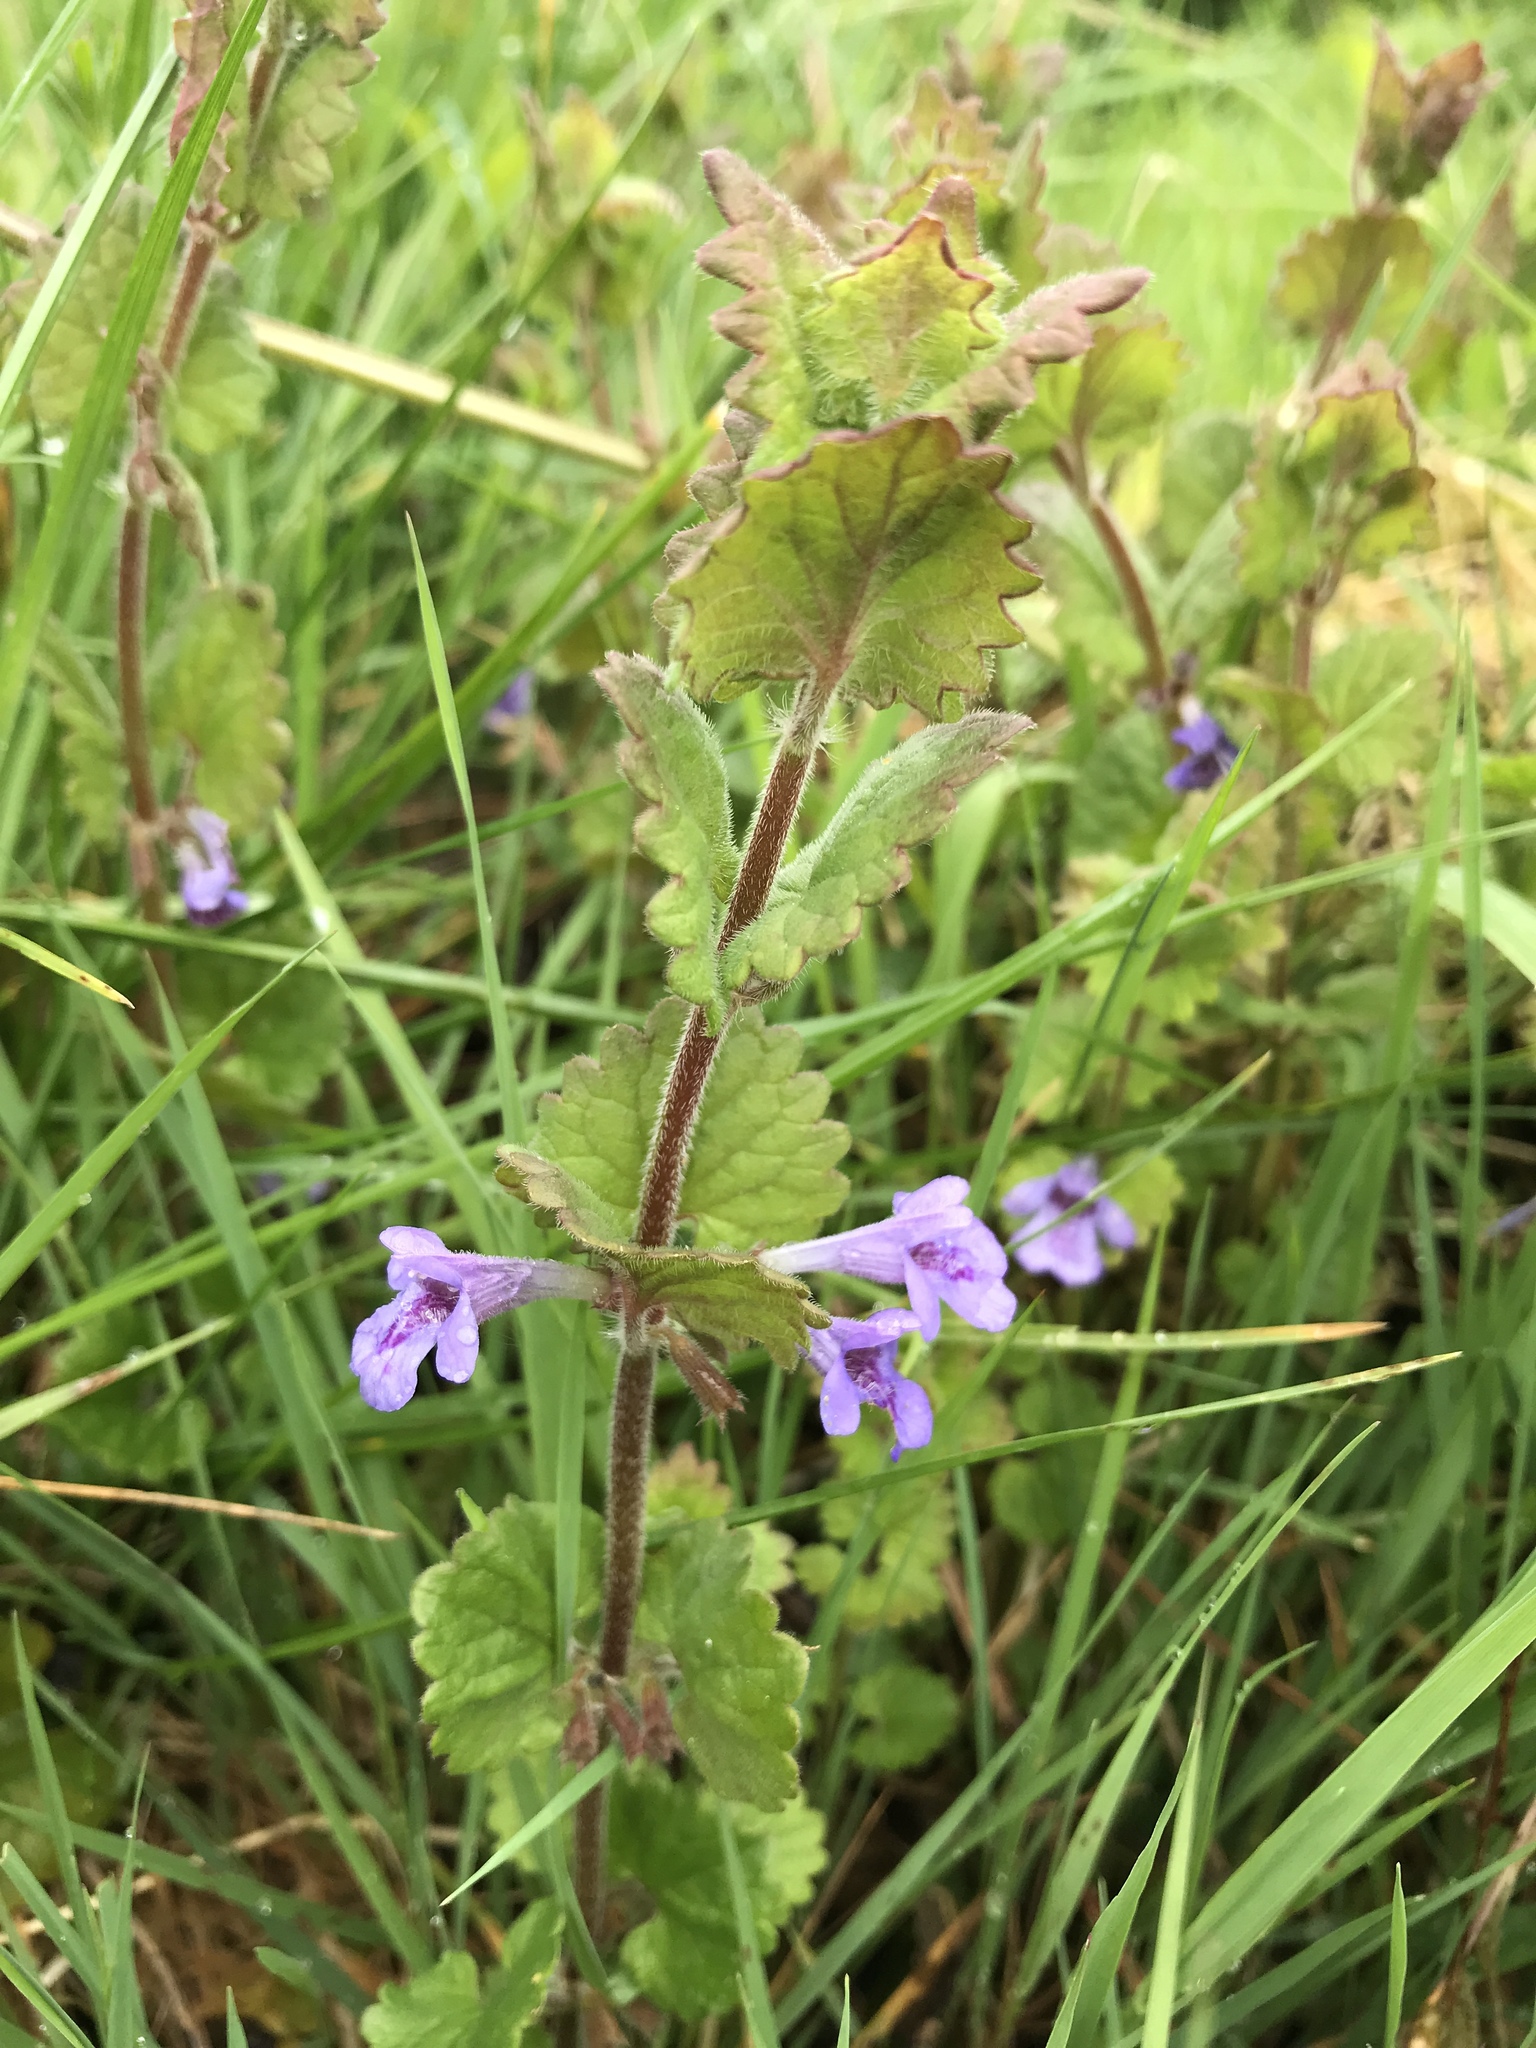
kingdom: Plantae
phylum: Tracheophyta
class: Magnoliopsida
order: Lamiales
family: Lamiaceae
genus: Glechoma
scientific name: Glechoma hederacea
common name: Ground ivy
